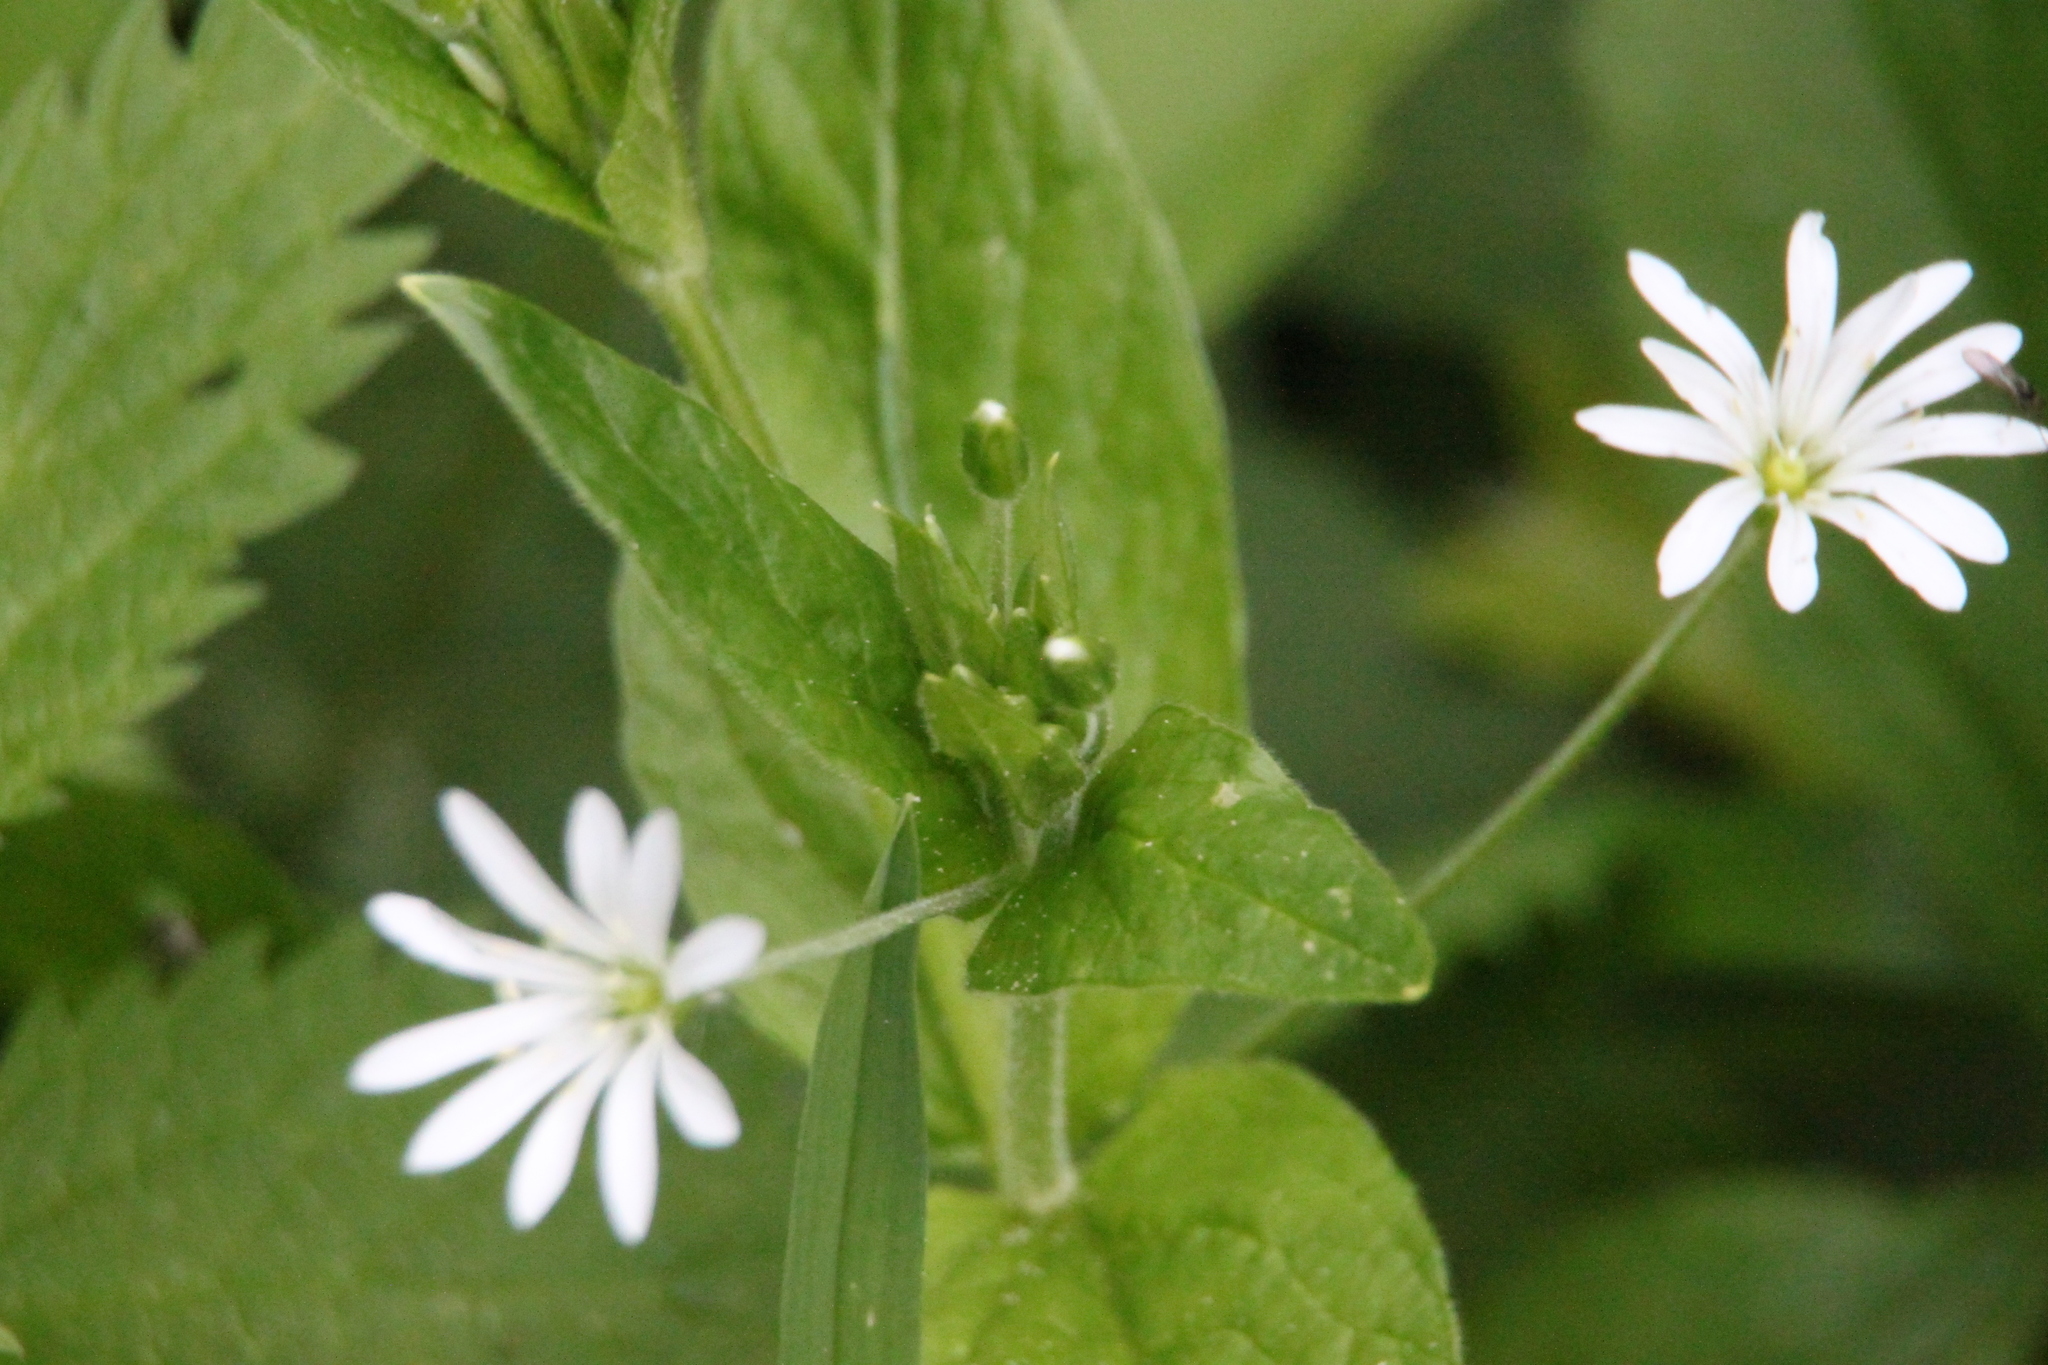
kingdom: Plantae
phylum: Tracheophyta
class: Magnoliopsida
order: Caryophyllales
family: Caryophyllaceae
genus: Stellaria
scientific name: Stellaria nemorum
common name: Wood stitchwort
